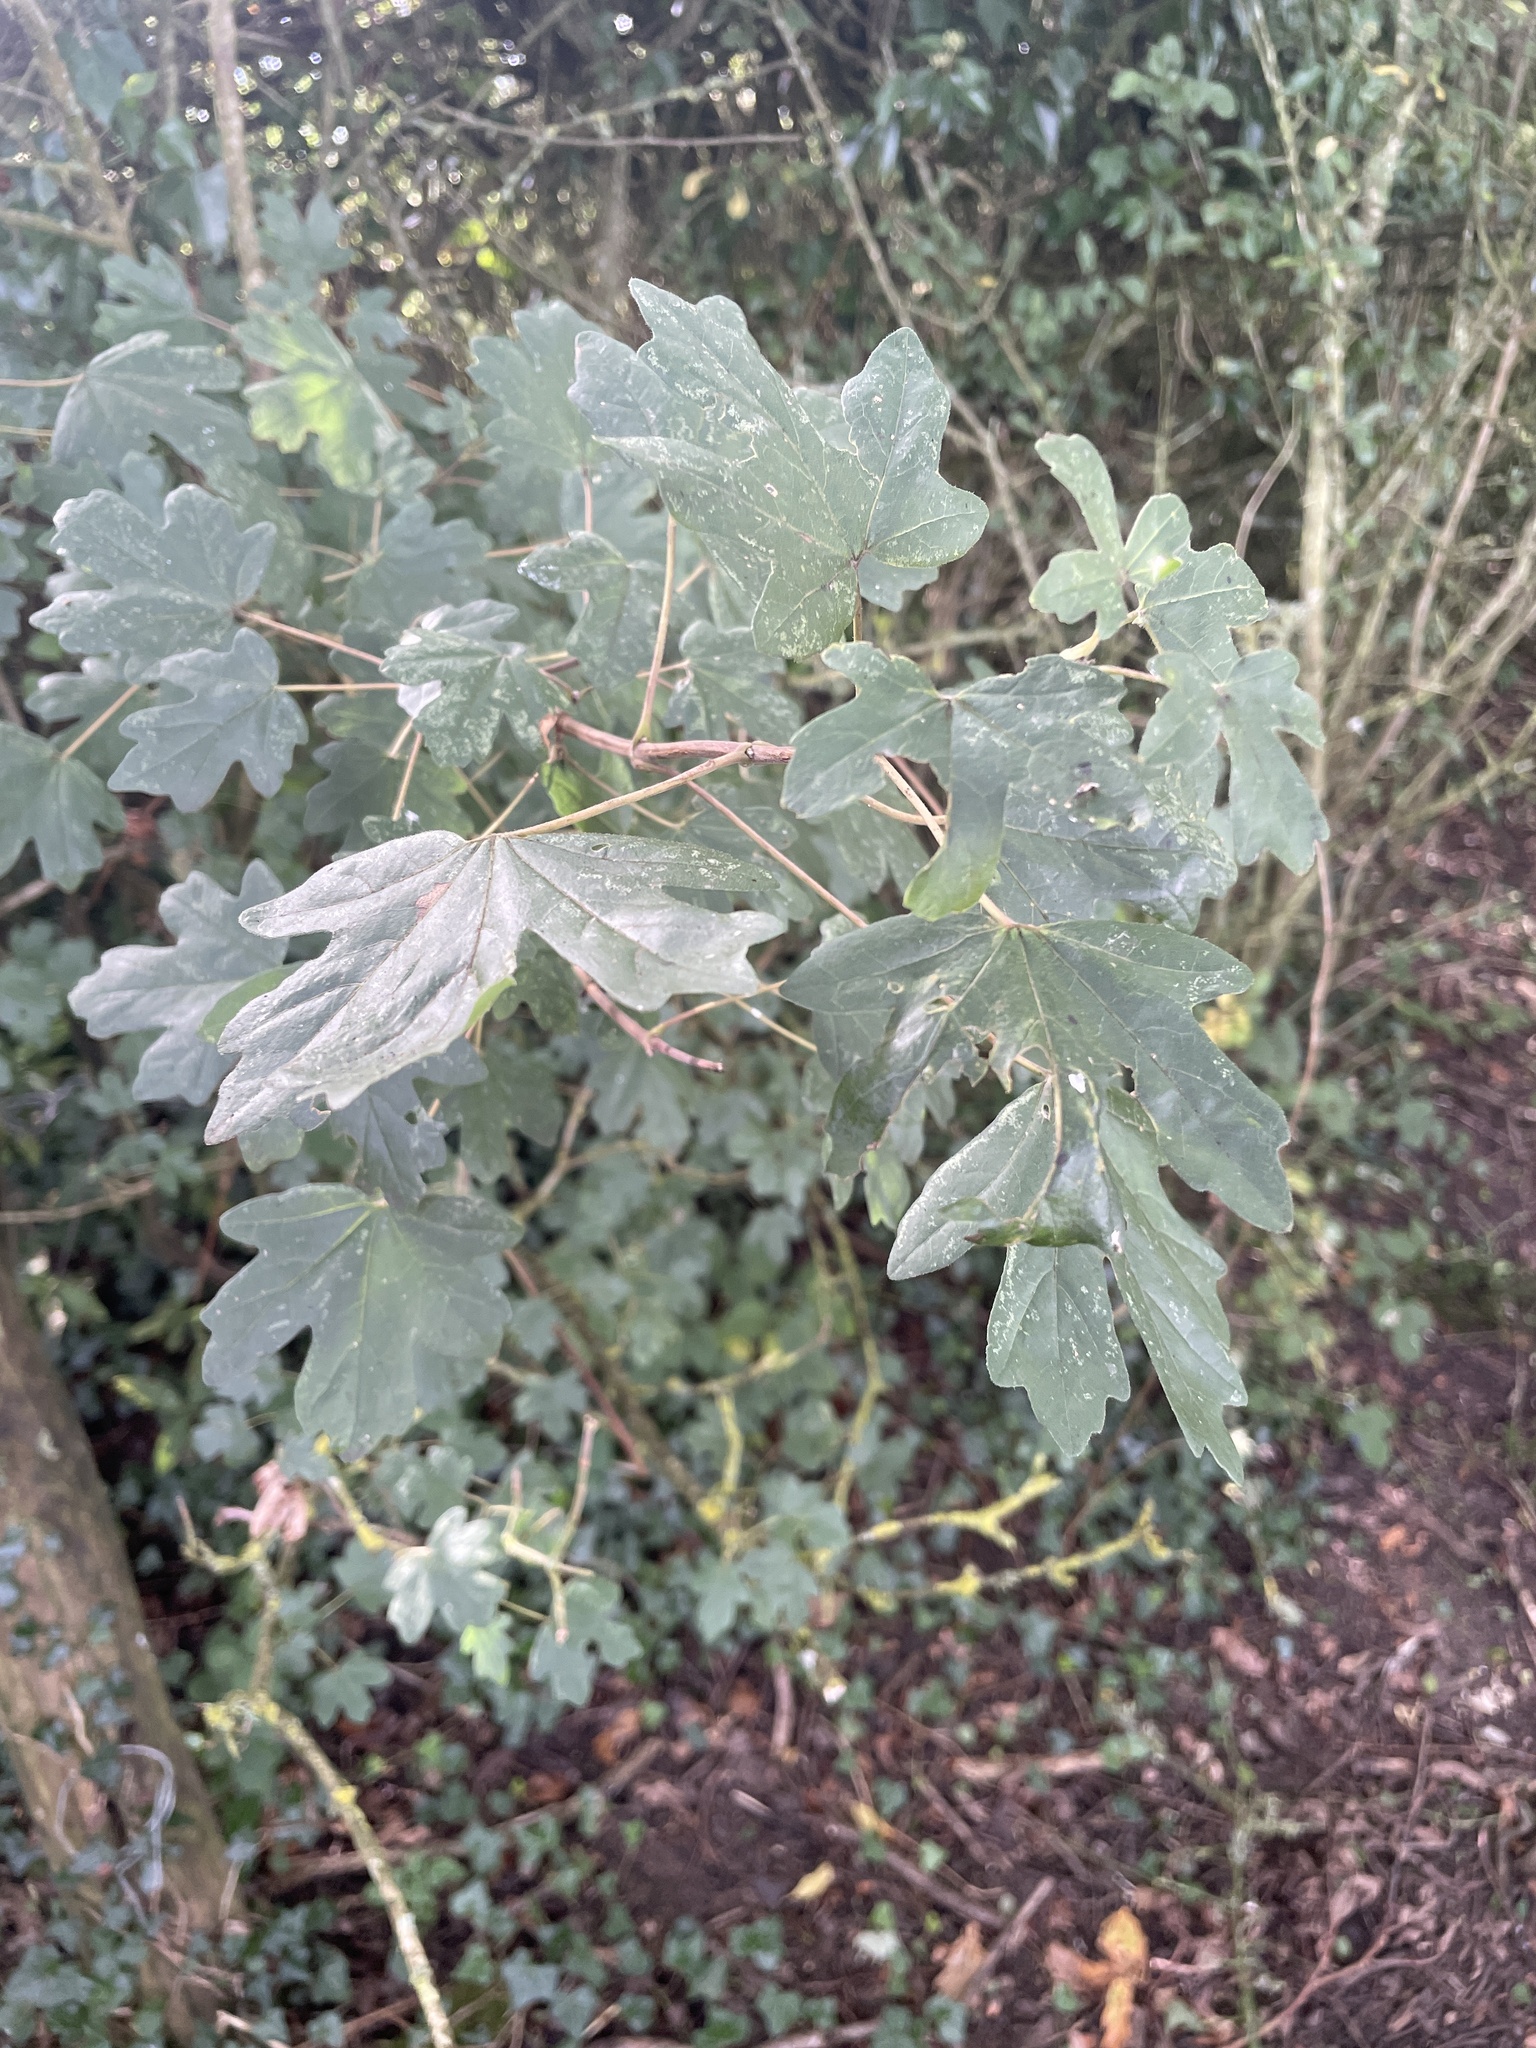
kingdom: Plantae
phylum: Tracheophyta
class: Magnoliopsida
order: Sapindales
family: Sapindaceae
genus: Acer
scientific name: Acer campestre
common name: Field maple
